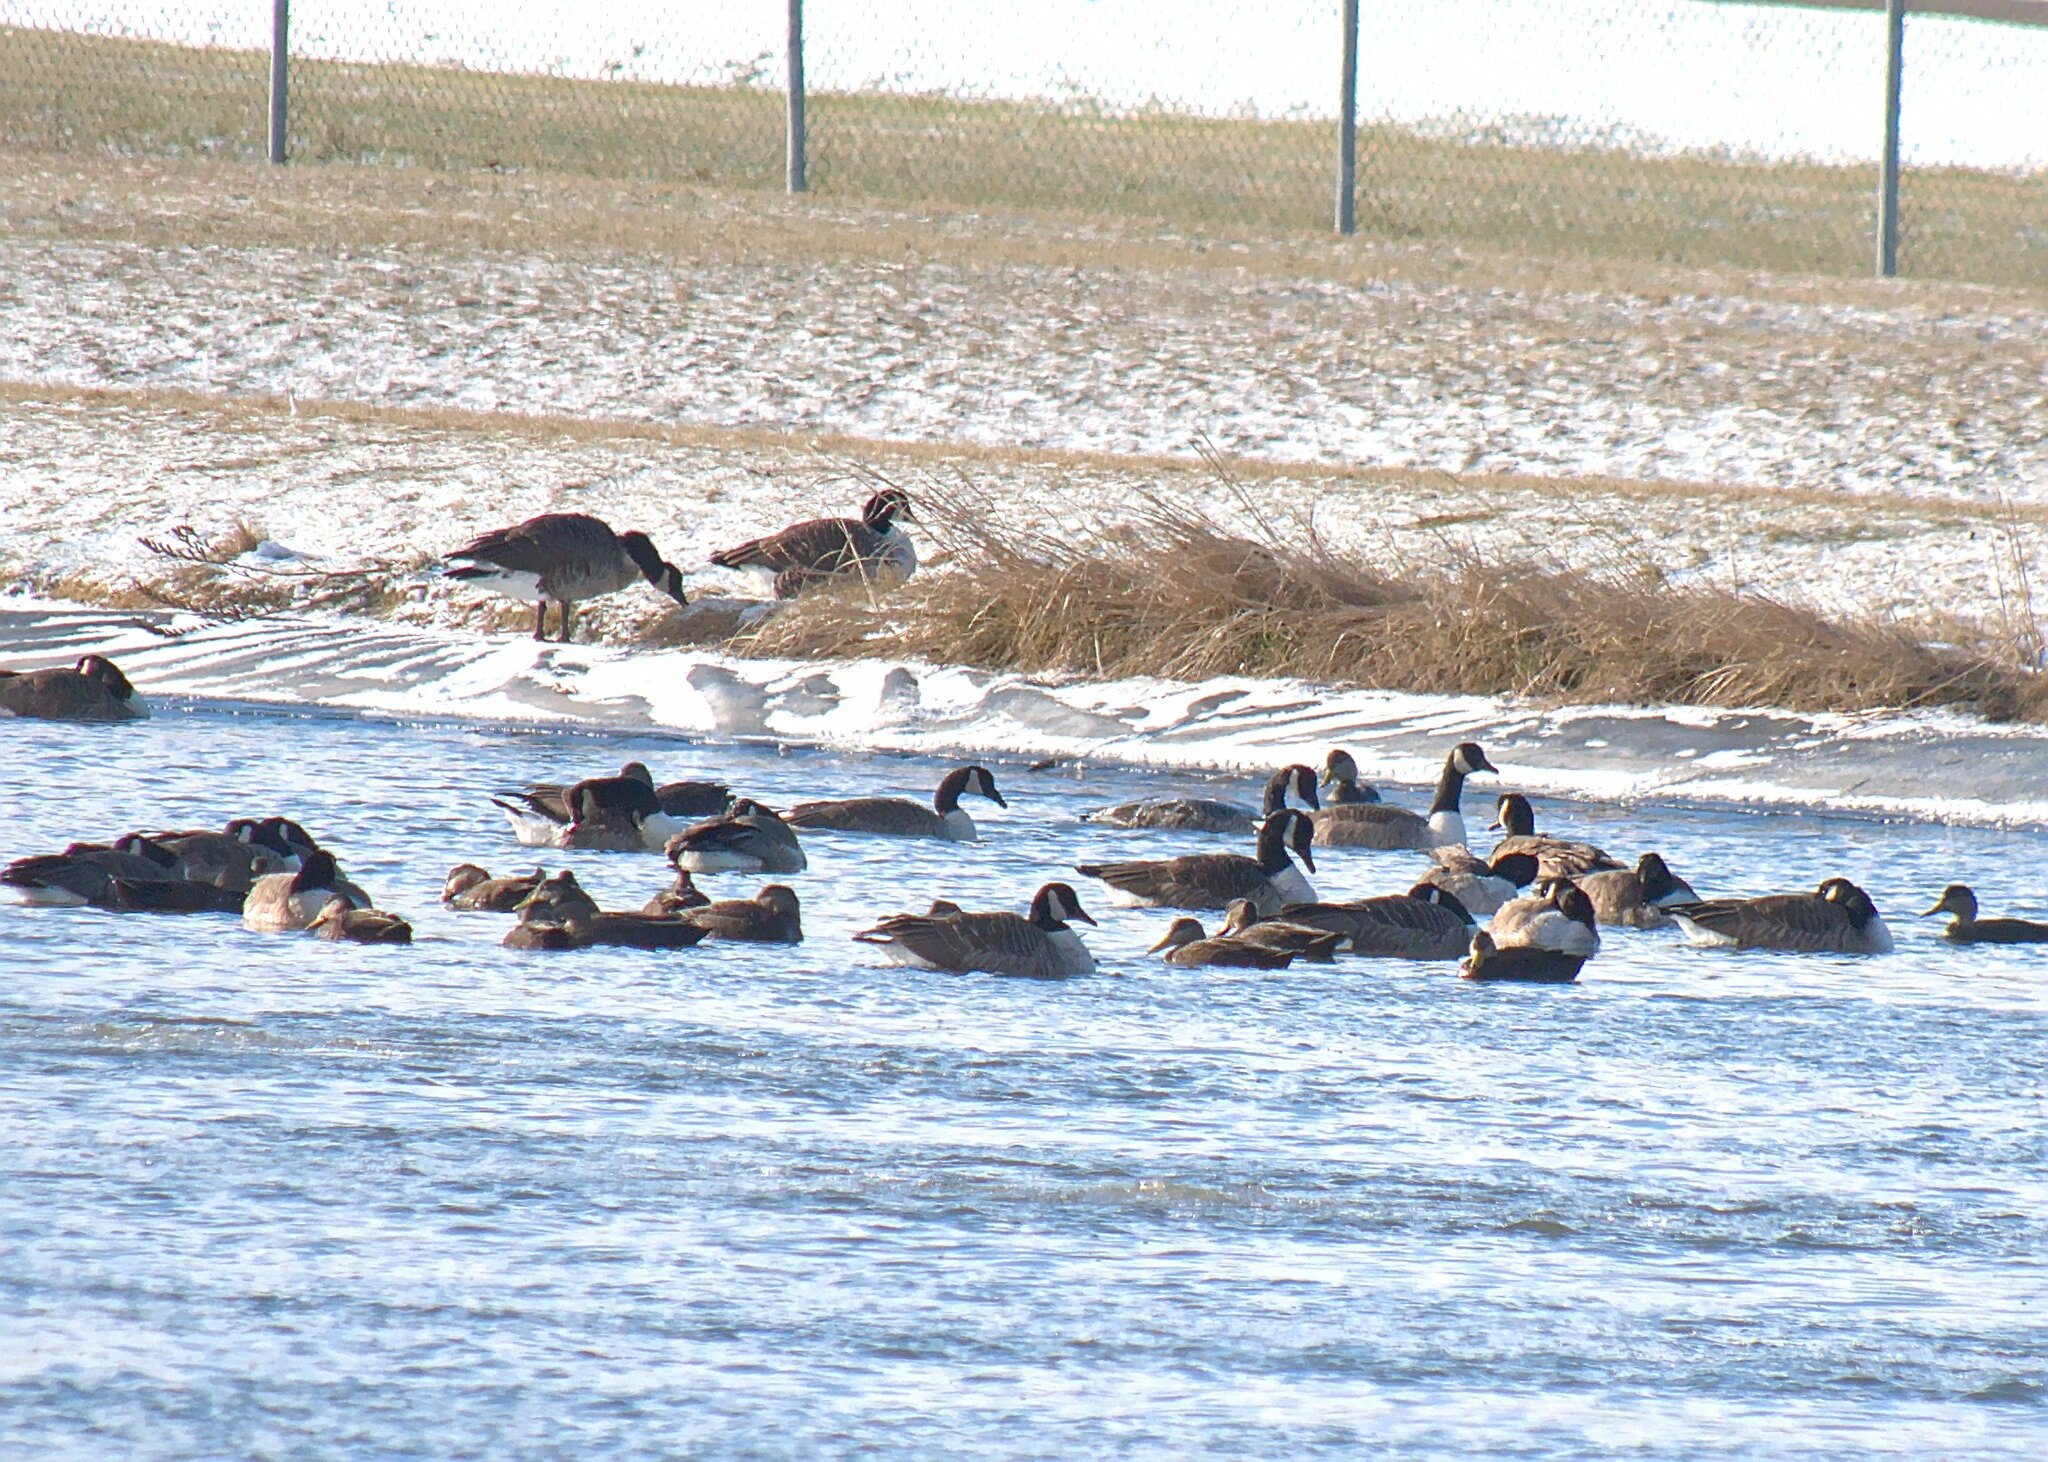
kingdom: Animalia
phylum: Chordata
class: Aves
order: Anseriformes
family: Anatidae
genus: Branta
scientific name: Branta canadensis
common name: Canada goose
